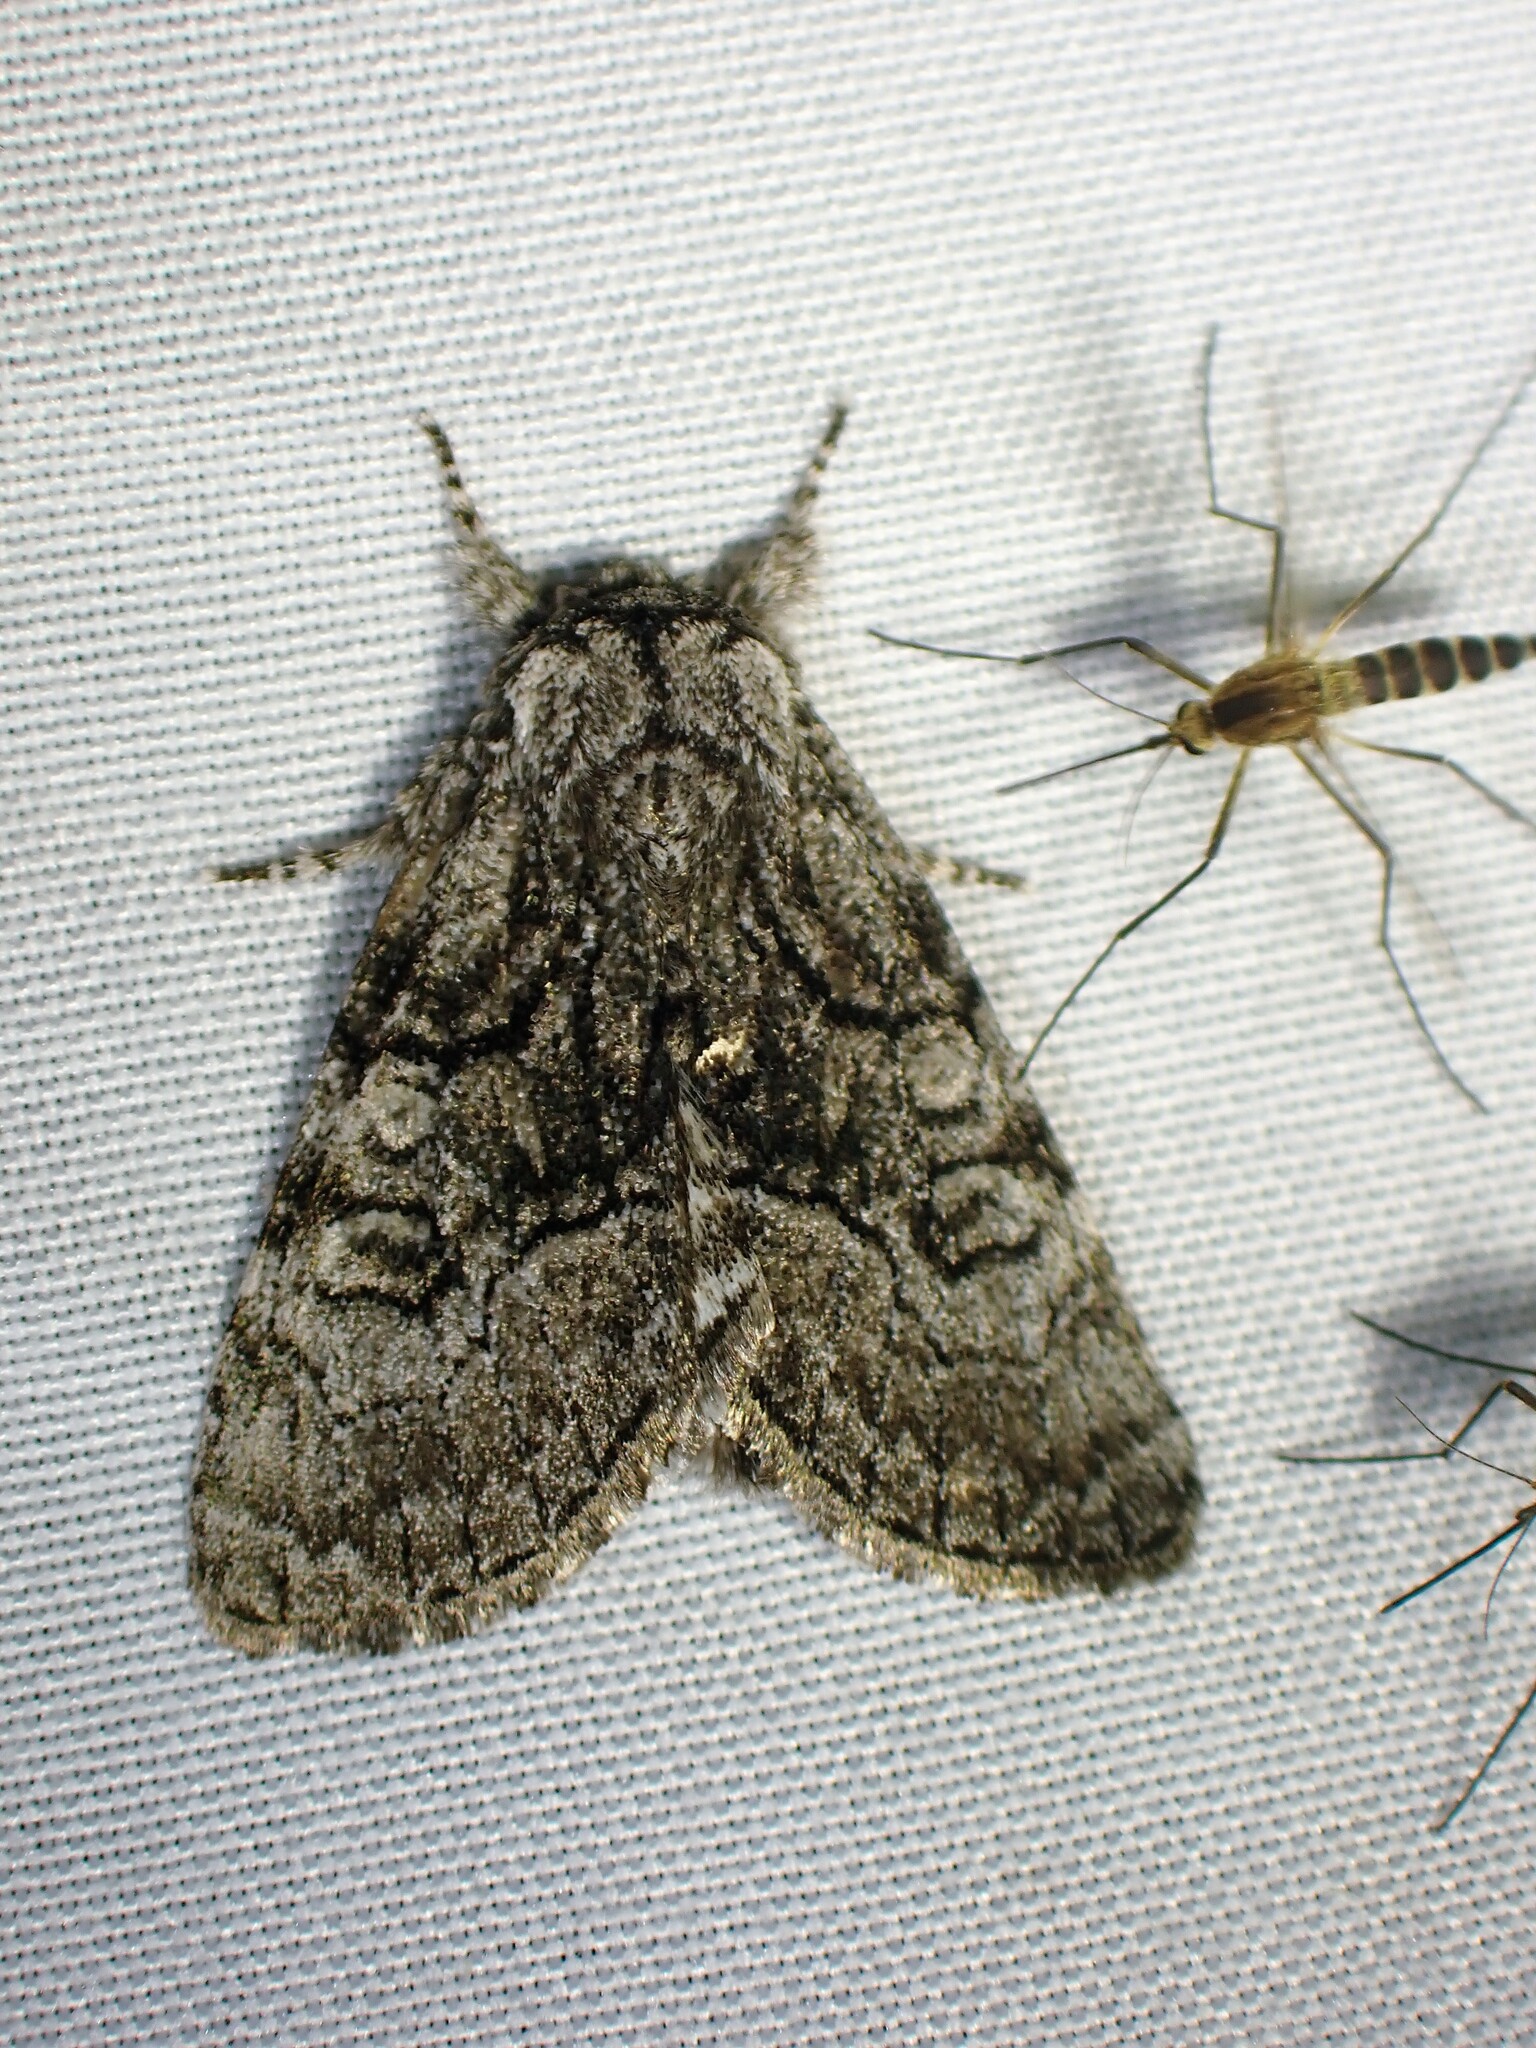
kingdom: Animalia
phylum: Arthropoda
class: Insecta
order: Lepidoptera
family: Noctuidae
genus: Raphia
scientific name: Raphia frater
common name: Brother
